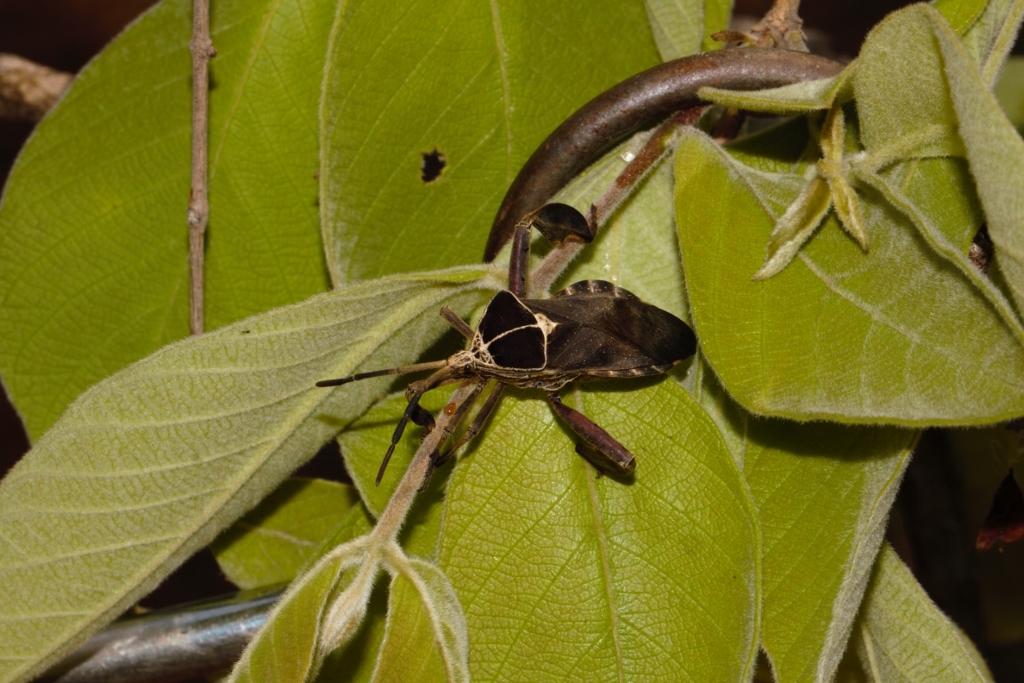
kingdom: Plantae
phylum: Tracheophyta
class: Magnoliopsida
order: Myrtales
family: Combretaceae
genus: Combretum
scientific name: Combretum molle
